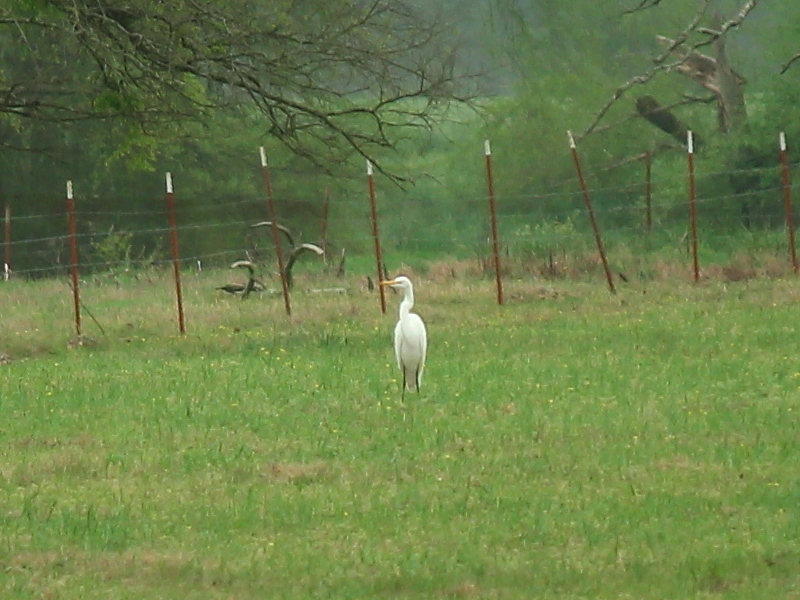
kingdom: Animalia
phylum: Chordata
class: Aves
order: Pelecaniformes
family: Ardeidae
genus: Bubulcus
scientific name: Bubulcus ibis
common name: Cattle egret
